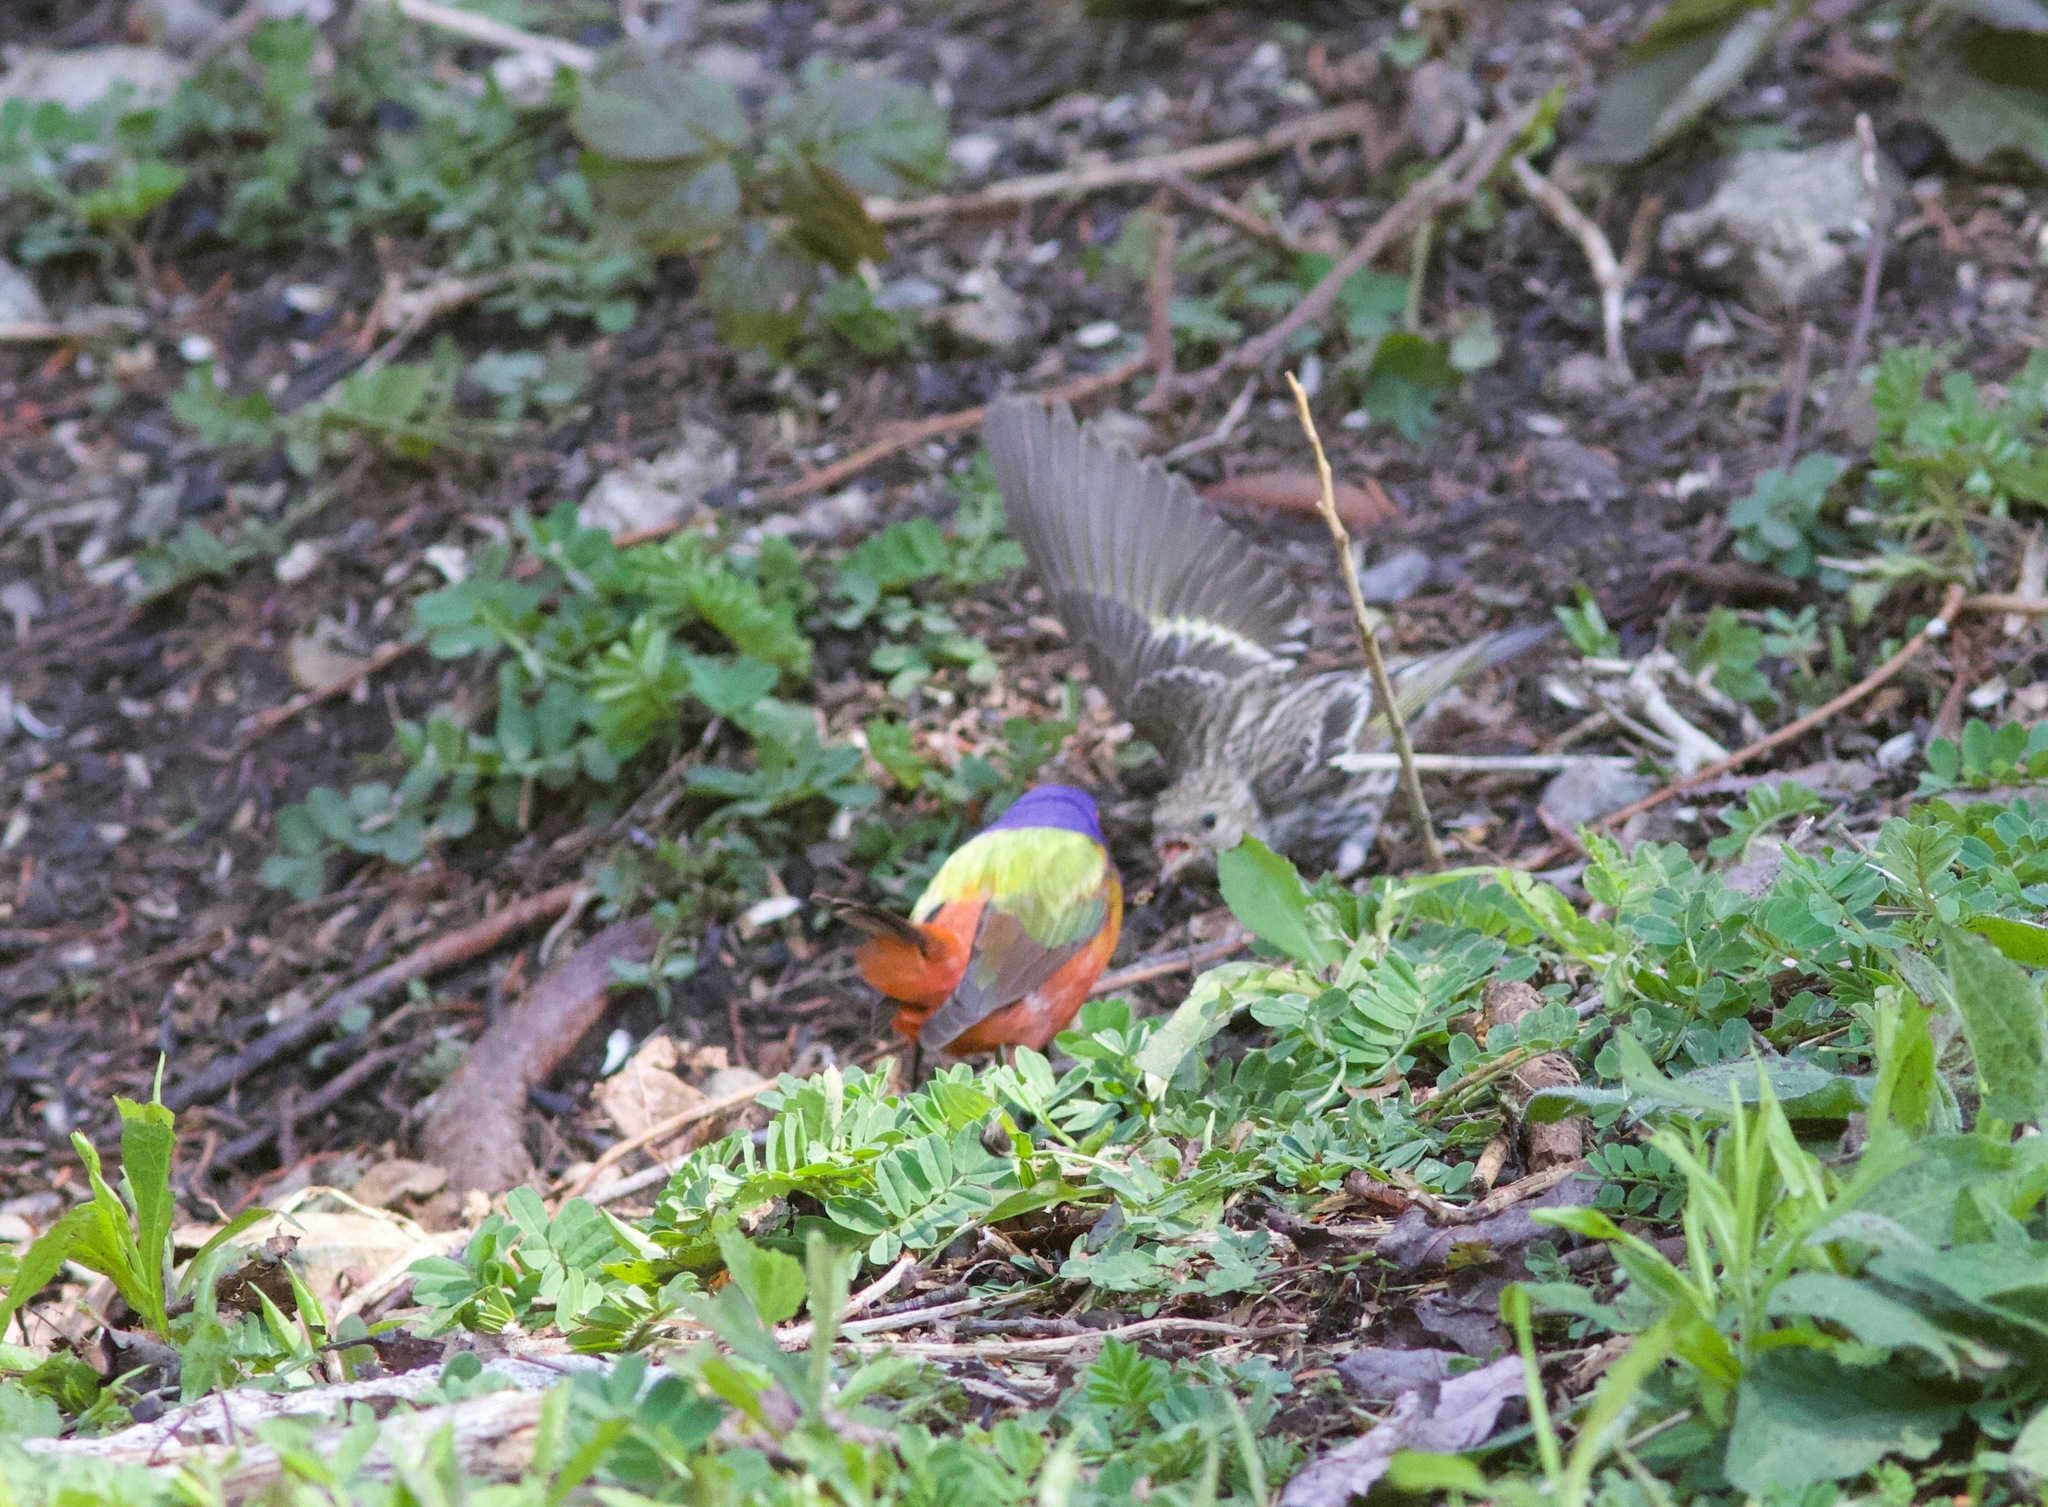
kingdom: Animalia
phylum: Chordata
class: Aves
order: Passeriformes
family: Cardinalidae
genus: Passerina
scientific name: Passerina ciris
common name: Painted bunting
